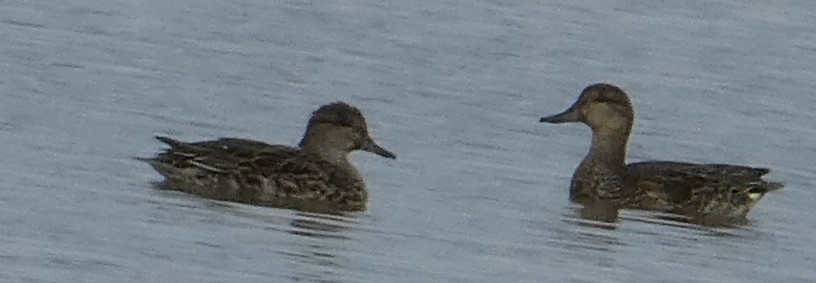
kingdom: Animalia
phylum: Chordata
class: Aves
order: Anseriformes
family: Anatidae
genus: Anas
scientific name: Anas crecca
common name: Eurasian teal
